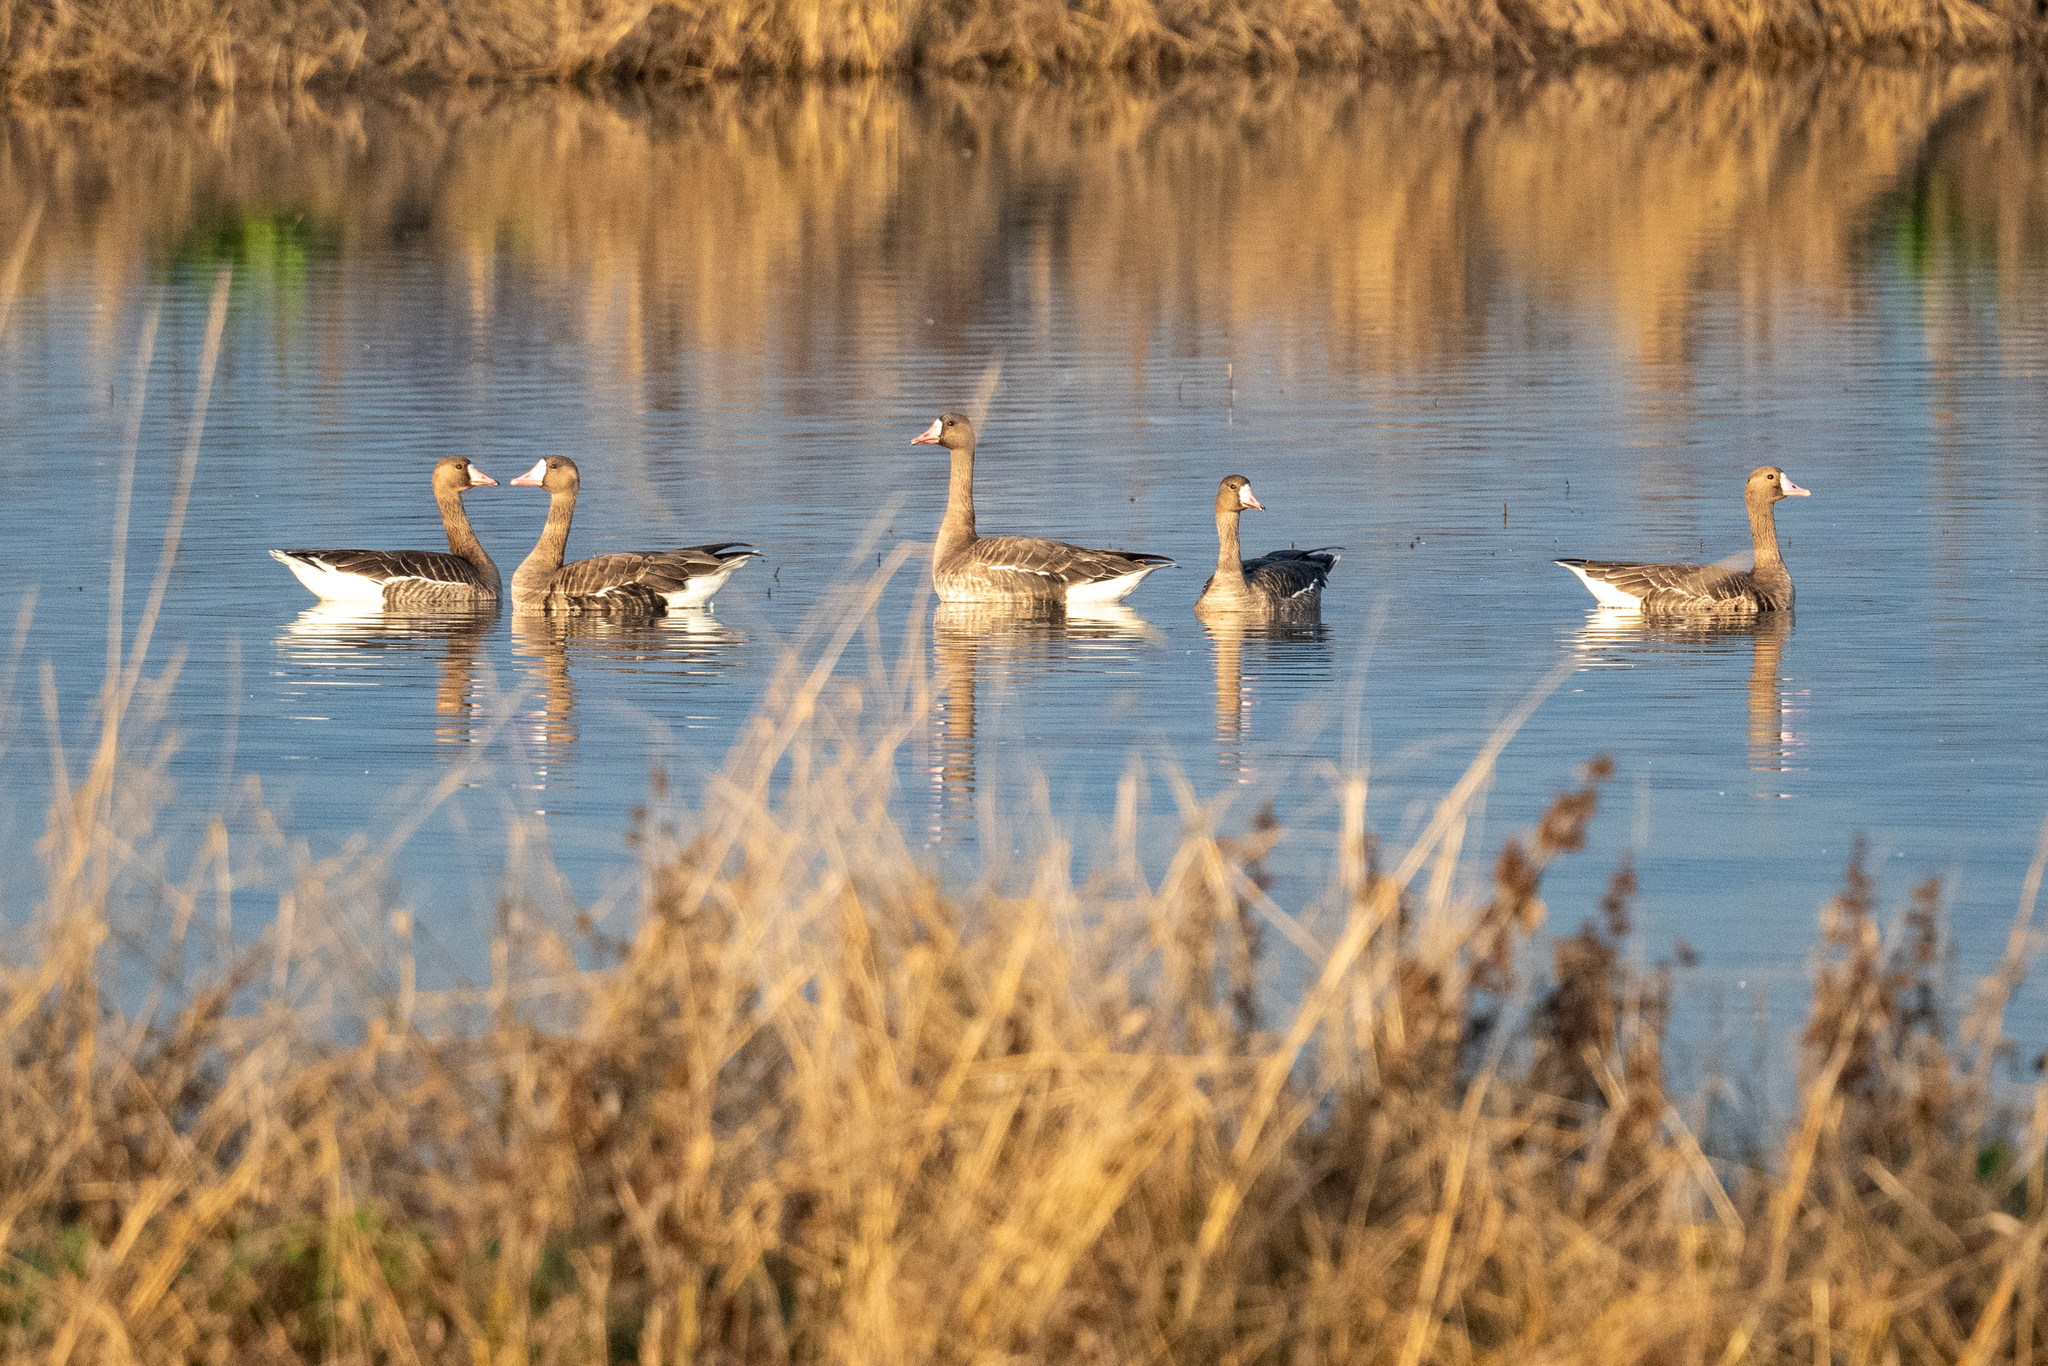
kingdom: Animalia
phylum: Chordata
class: Aves
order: Anseriformes
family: Anatidae
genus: Anser
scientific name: Anser albifrons
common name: Greater white-fronted goose
